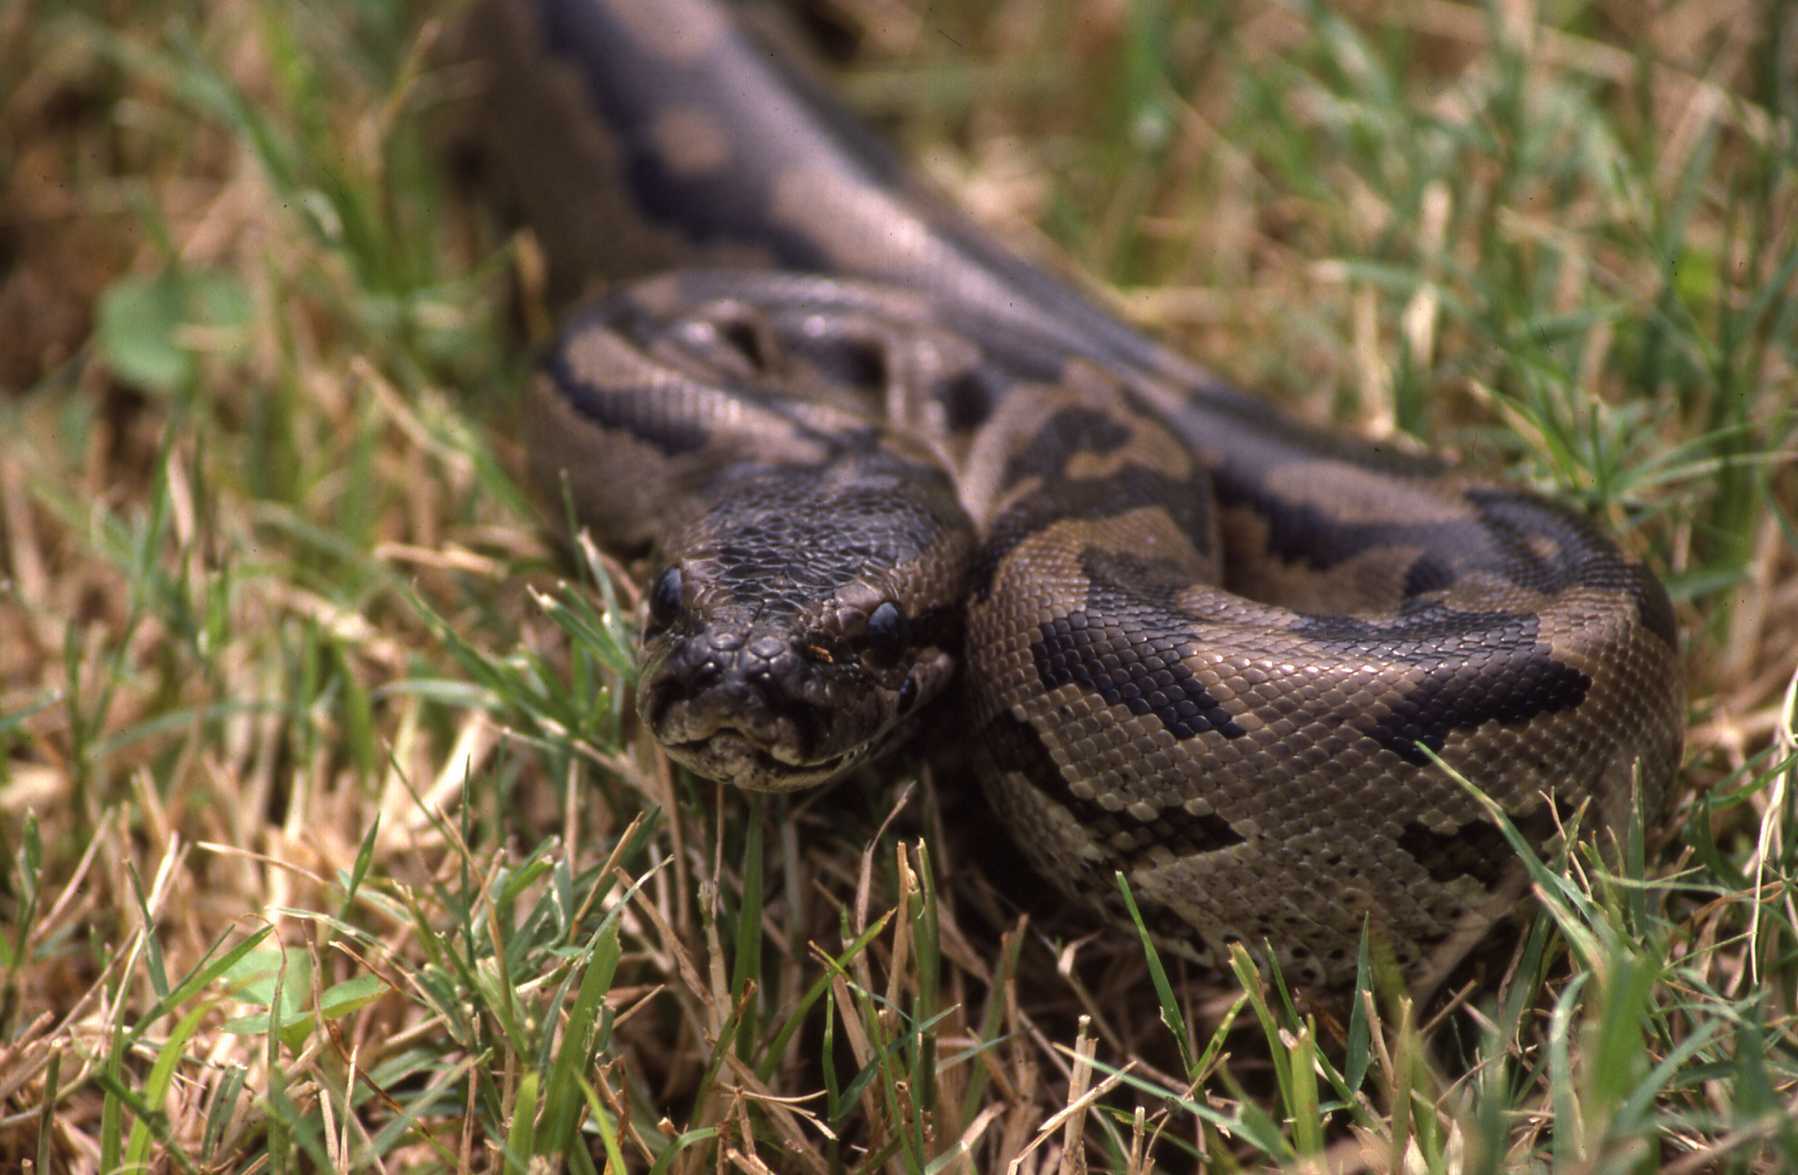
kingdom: Animalia
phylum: Chordata
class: Squamata
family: Pythonidae
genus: Python
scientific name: Python natalensis
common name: Southern african rock python
